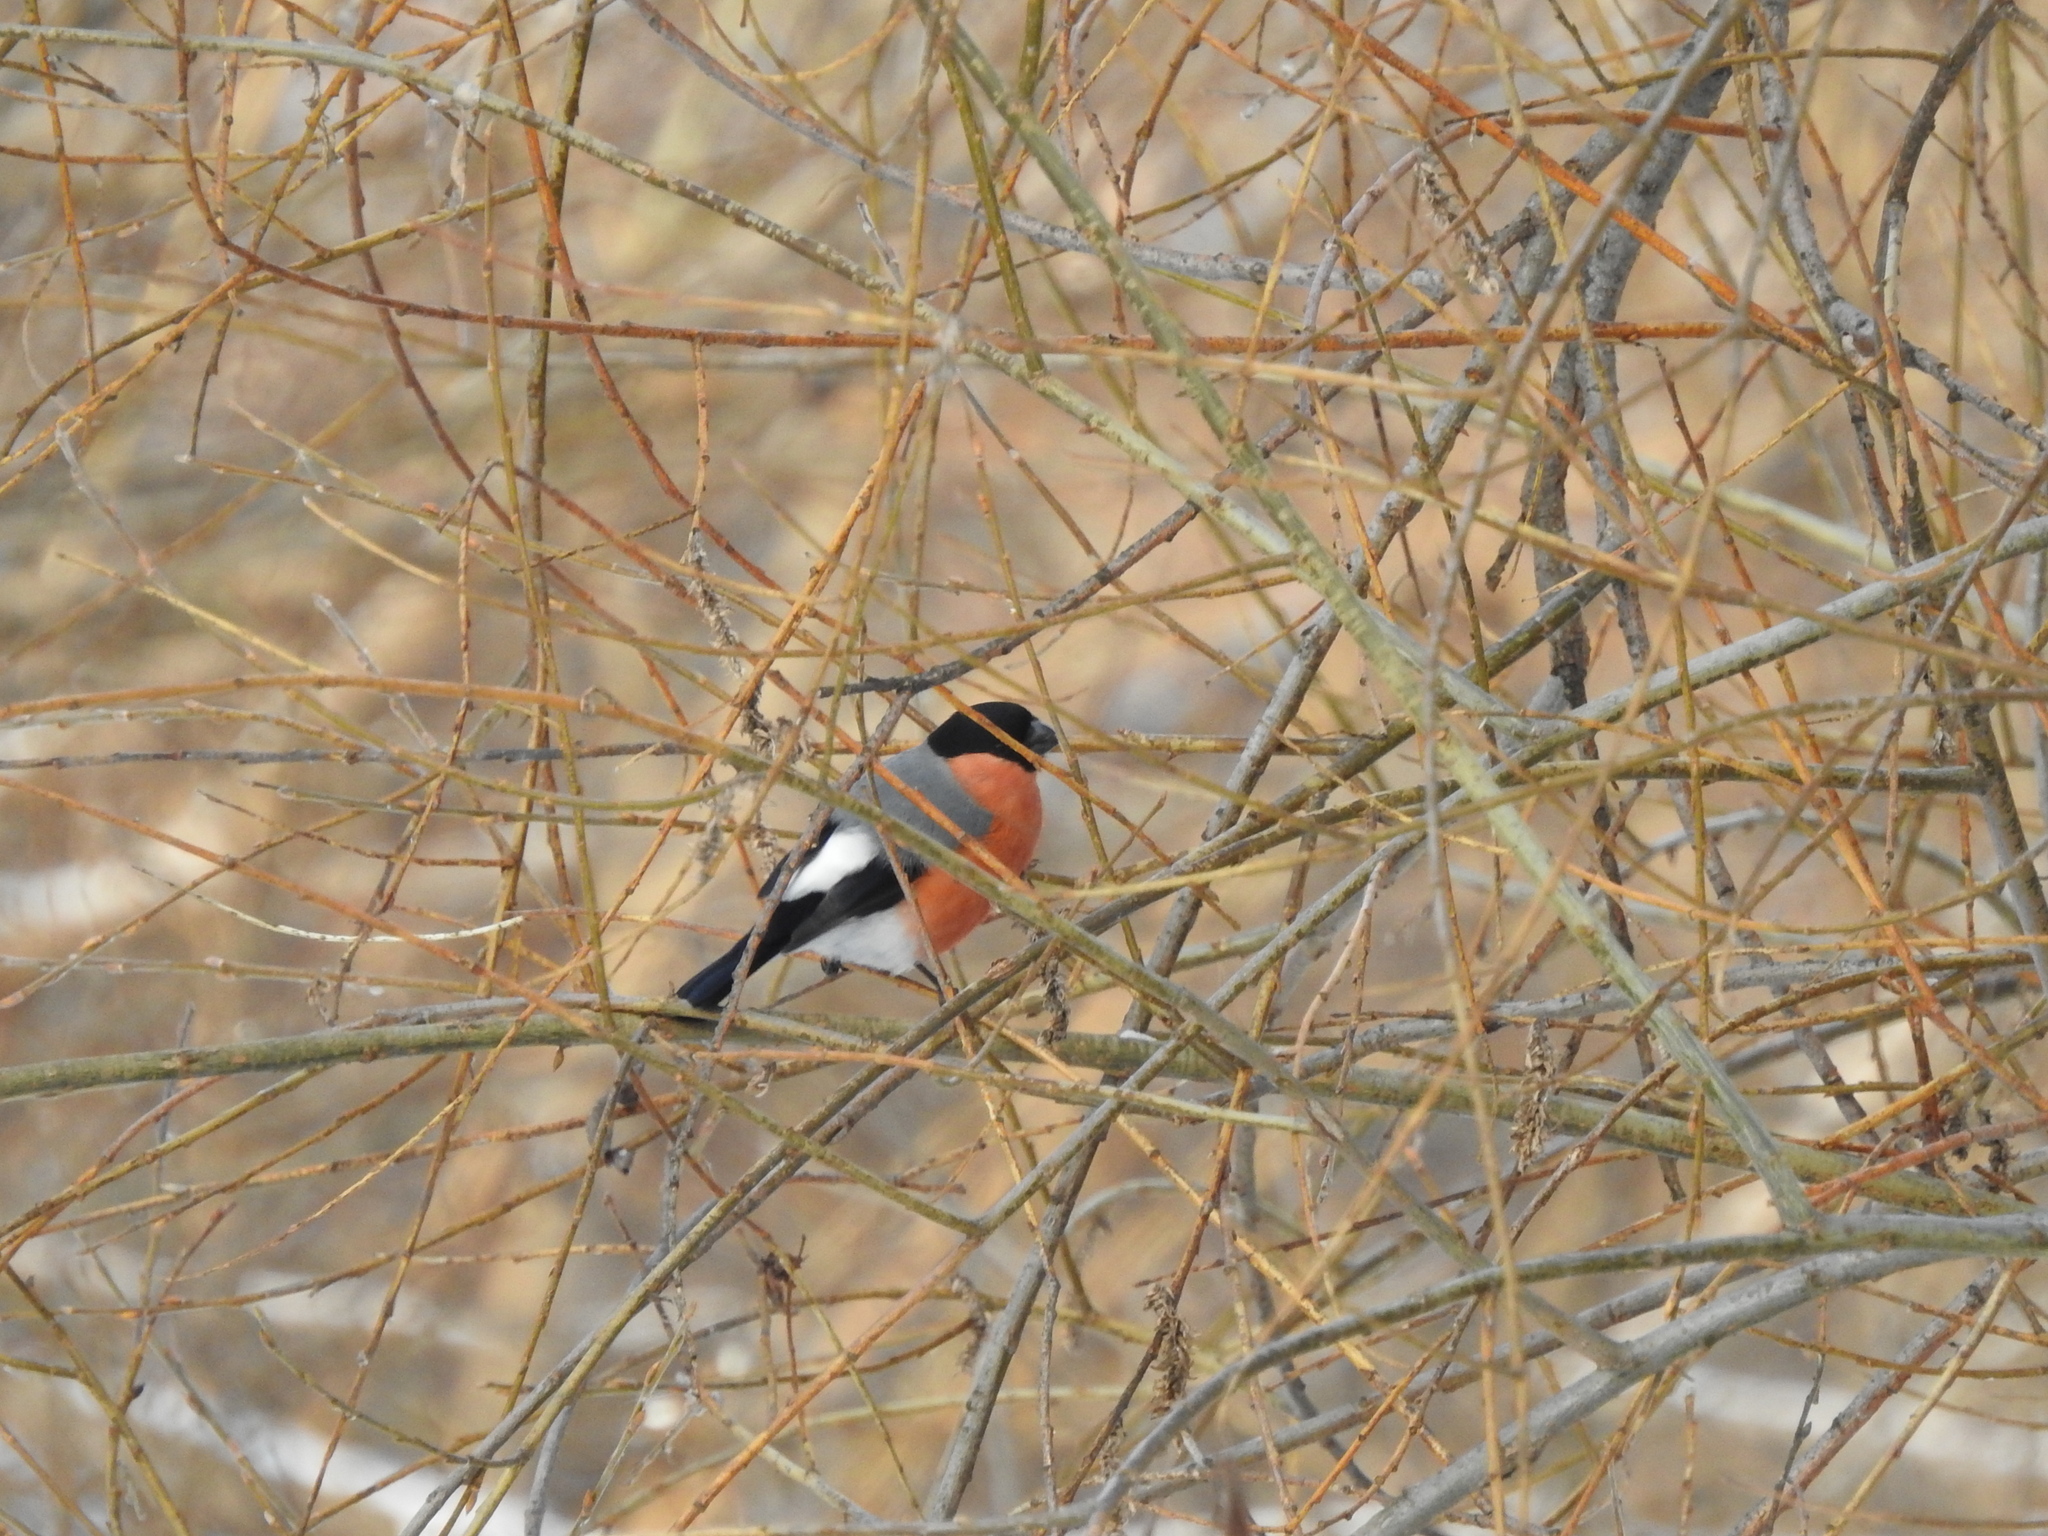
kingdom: Animalia
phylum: Chordata
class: Aves
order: Passeriformes
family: Fringillidae
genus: Pyrrhula
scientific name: Pyrrhula pyrrhula
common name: Eurasian bullfinch
